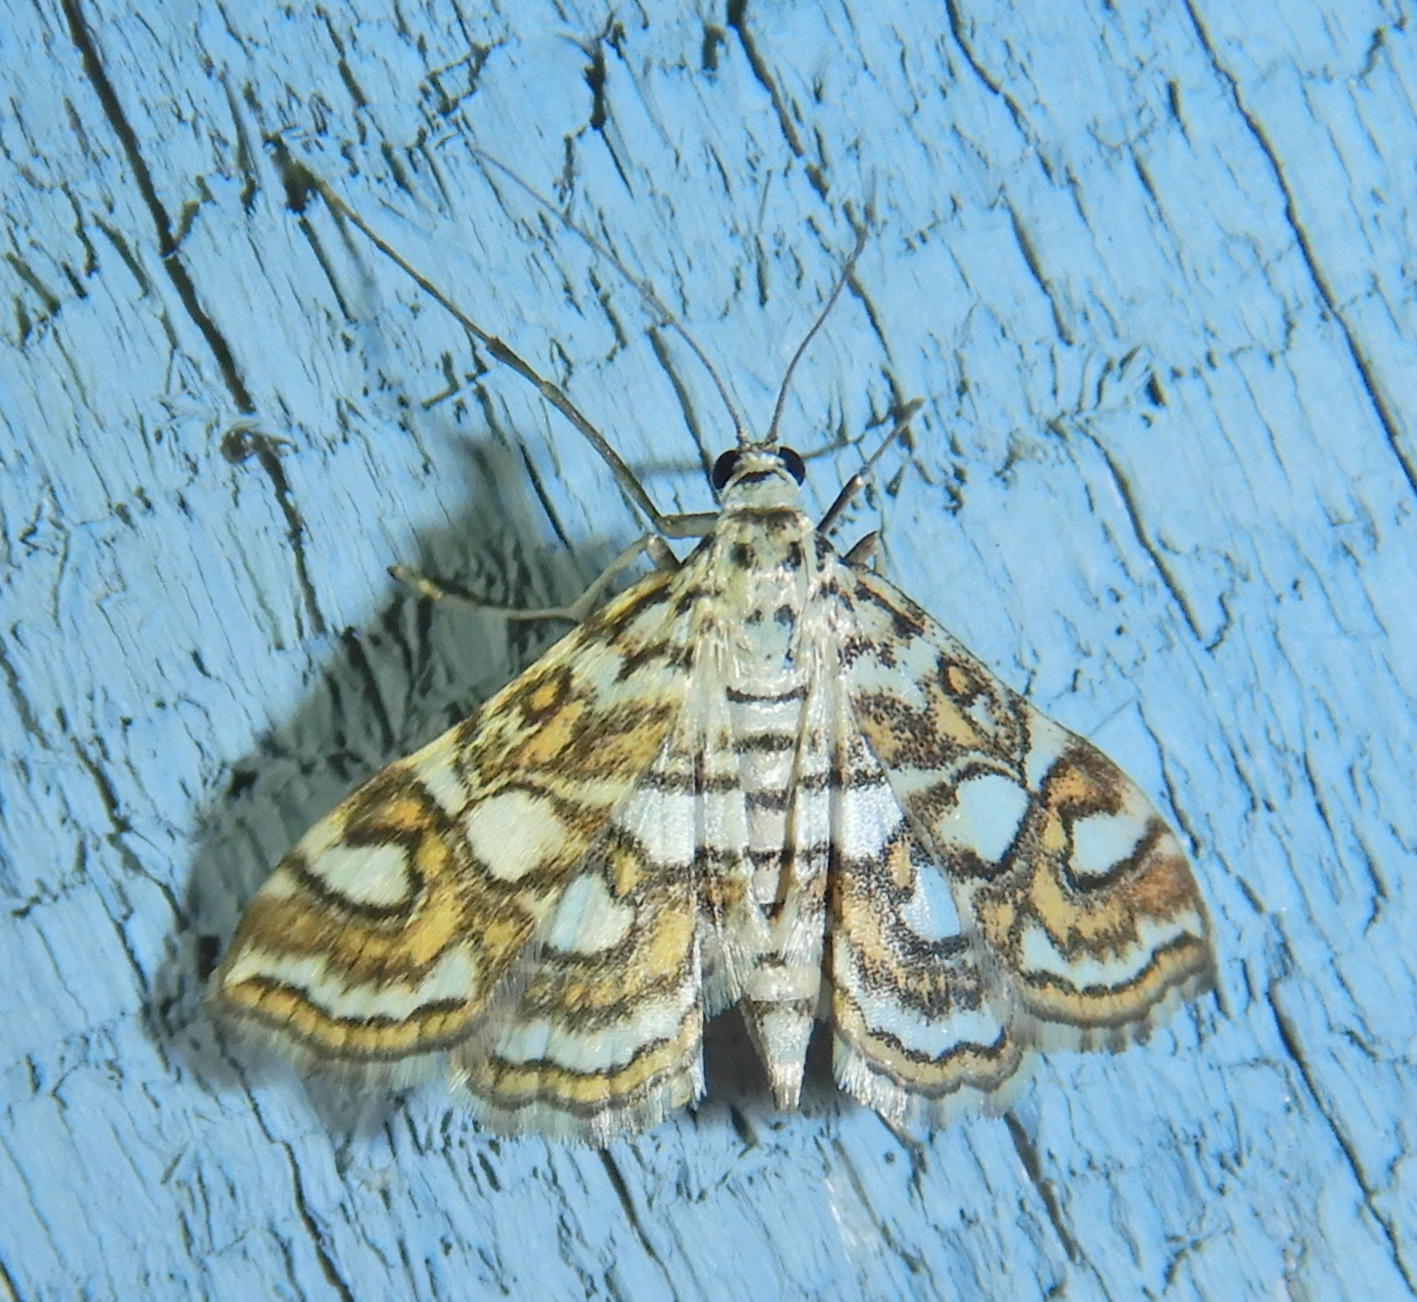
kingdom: Animalia
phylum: Arthropoda
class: Insecta
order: Lepidoptera
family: Crambidae
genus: Elophila
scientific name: Elophila ekthlipsis
